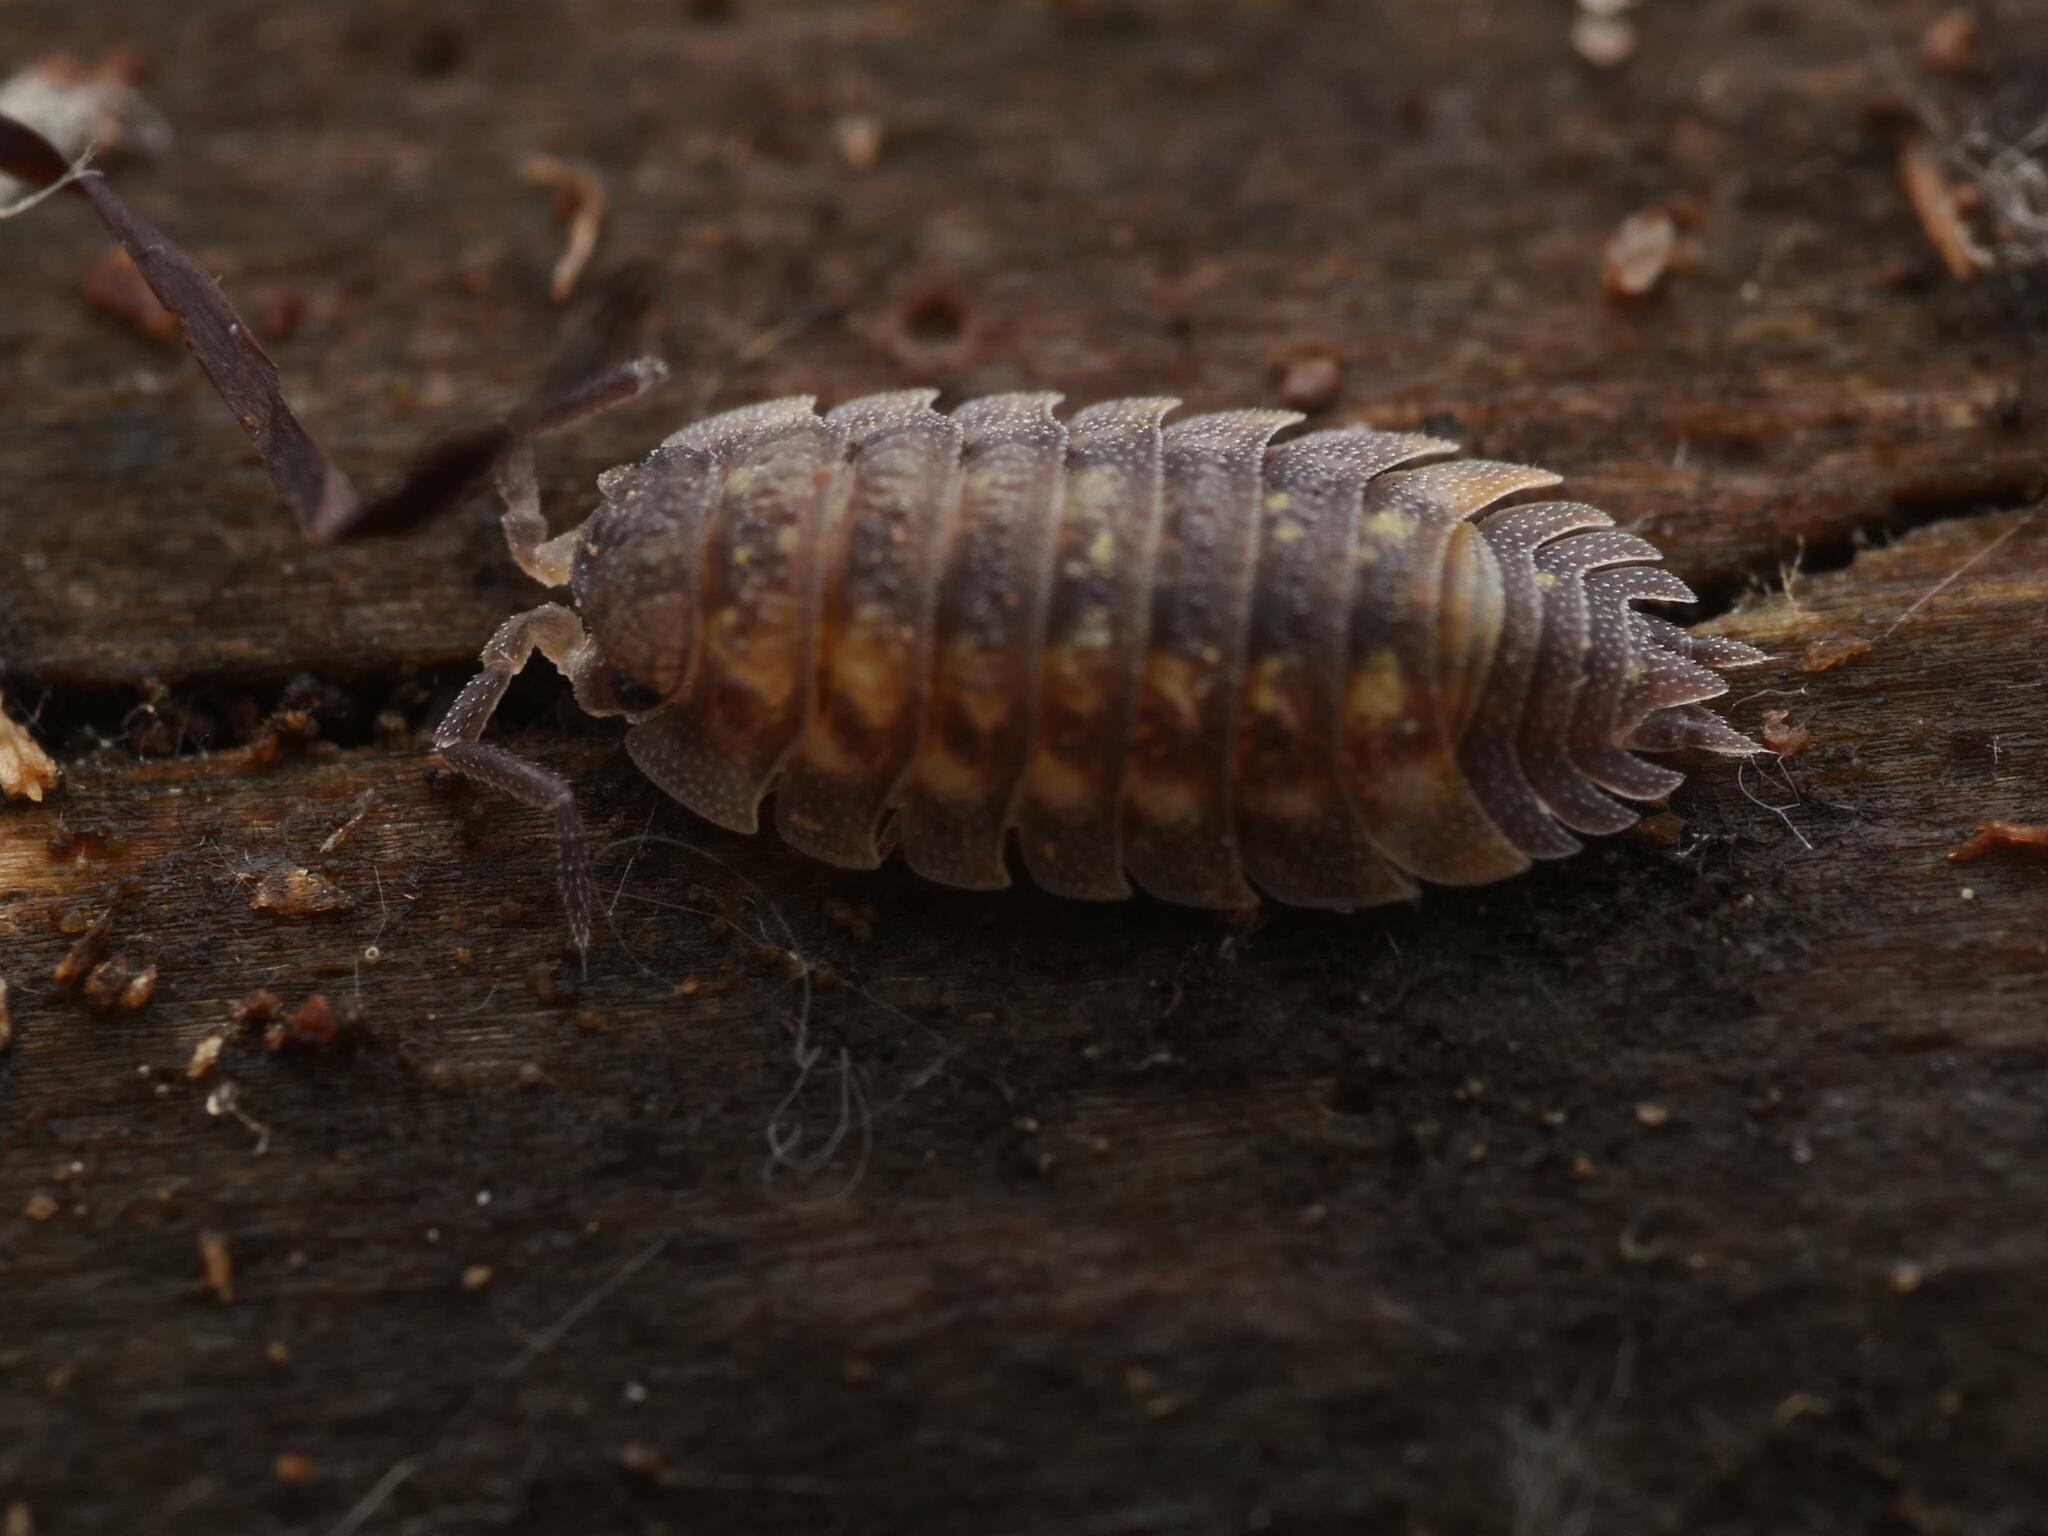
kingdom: Animalia
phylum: Arthropoda
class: Malacostraca
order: Isopoda
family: Oniscidae
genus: Oniscus
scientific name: Oniscus asellus
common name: Common shiny woodlouse
